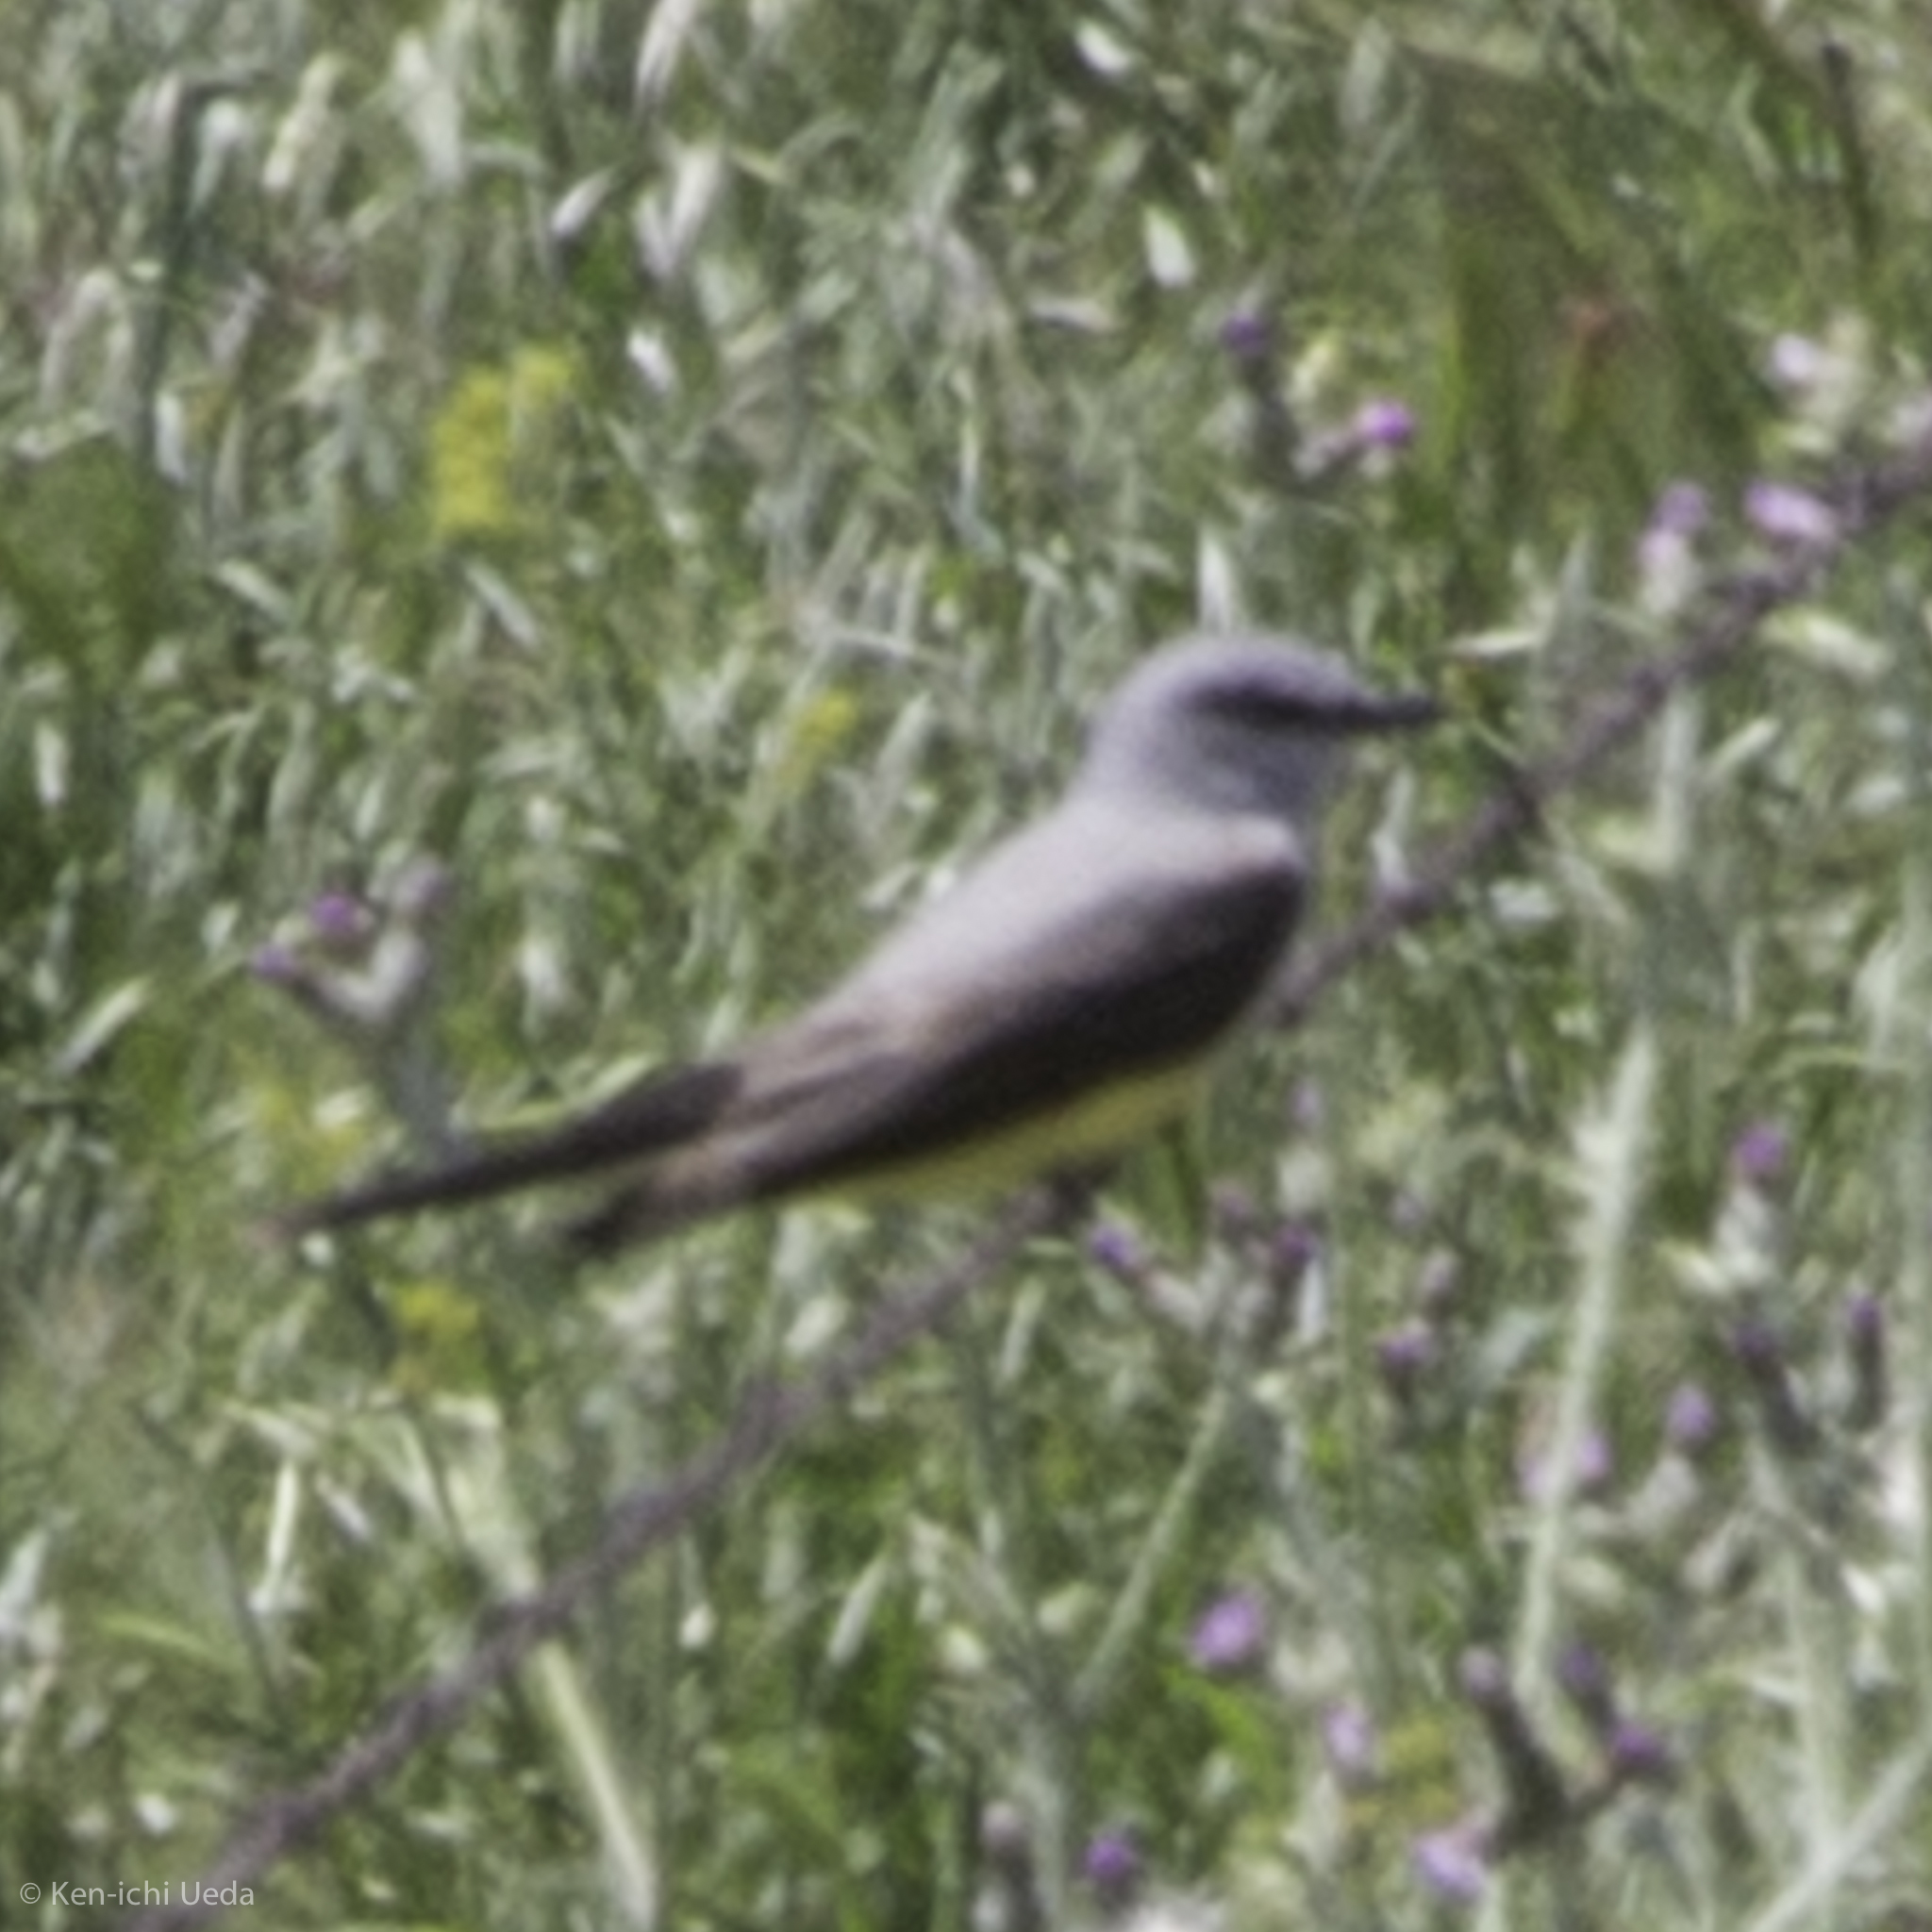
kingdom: Animalia
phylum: Chordata
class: Aves
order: Passeriformes
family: Tyrannidae
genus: Tyrannus
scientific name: Tyrannus verticalis
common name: Western kingbird
